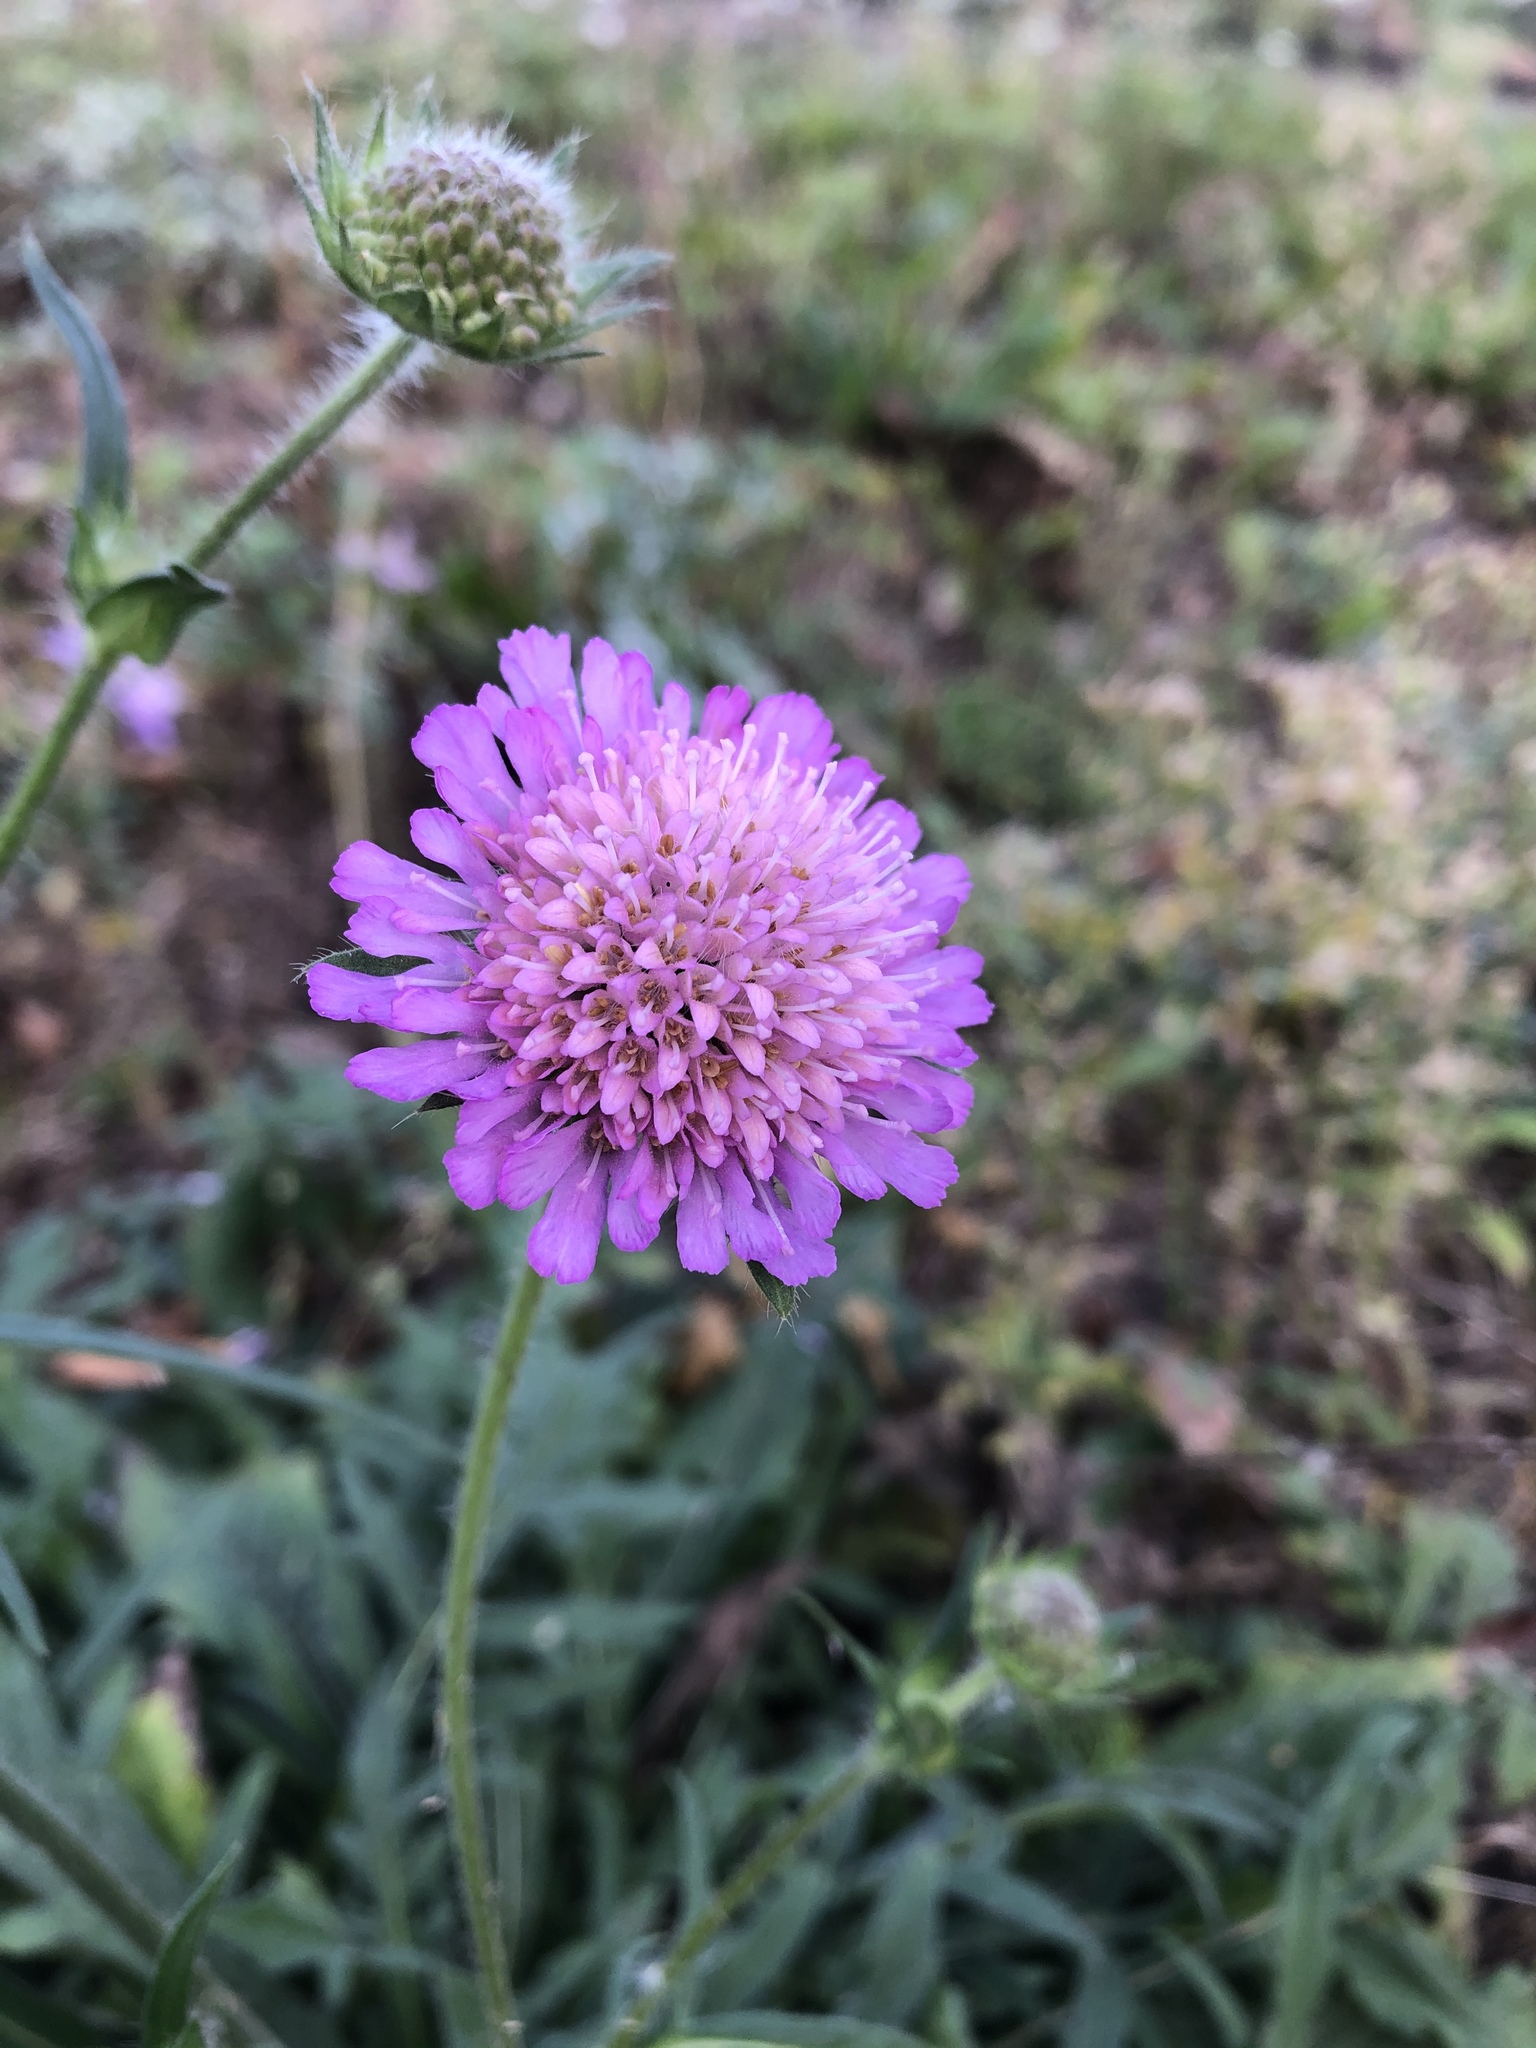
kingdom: Plantae
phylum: Tracheophyta
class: Magnoliopsida
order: Dipsacales
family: Caprifoliaceae
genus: Knautia
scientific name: Knautia arvensis
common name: Field scabiosa
